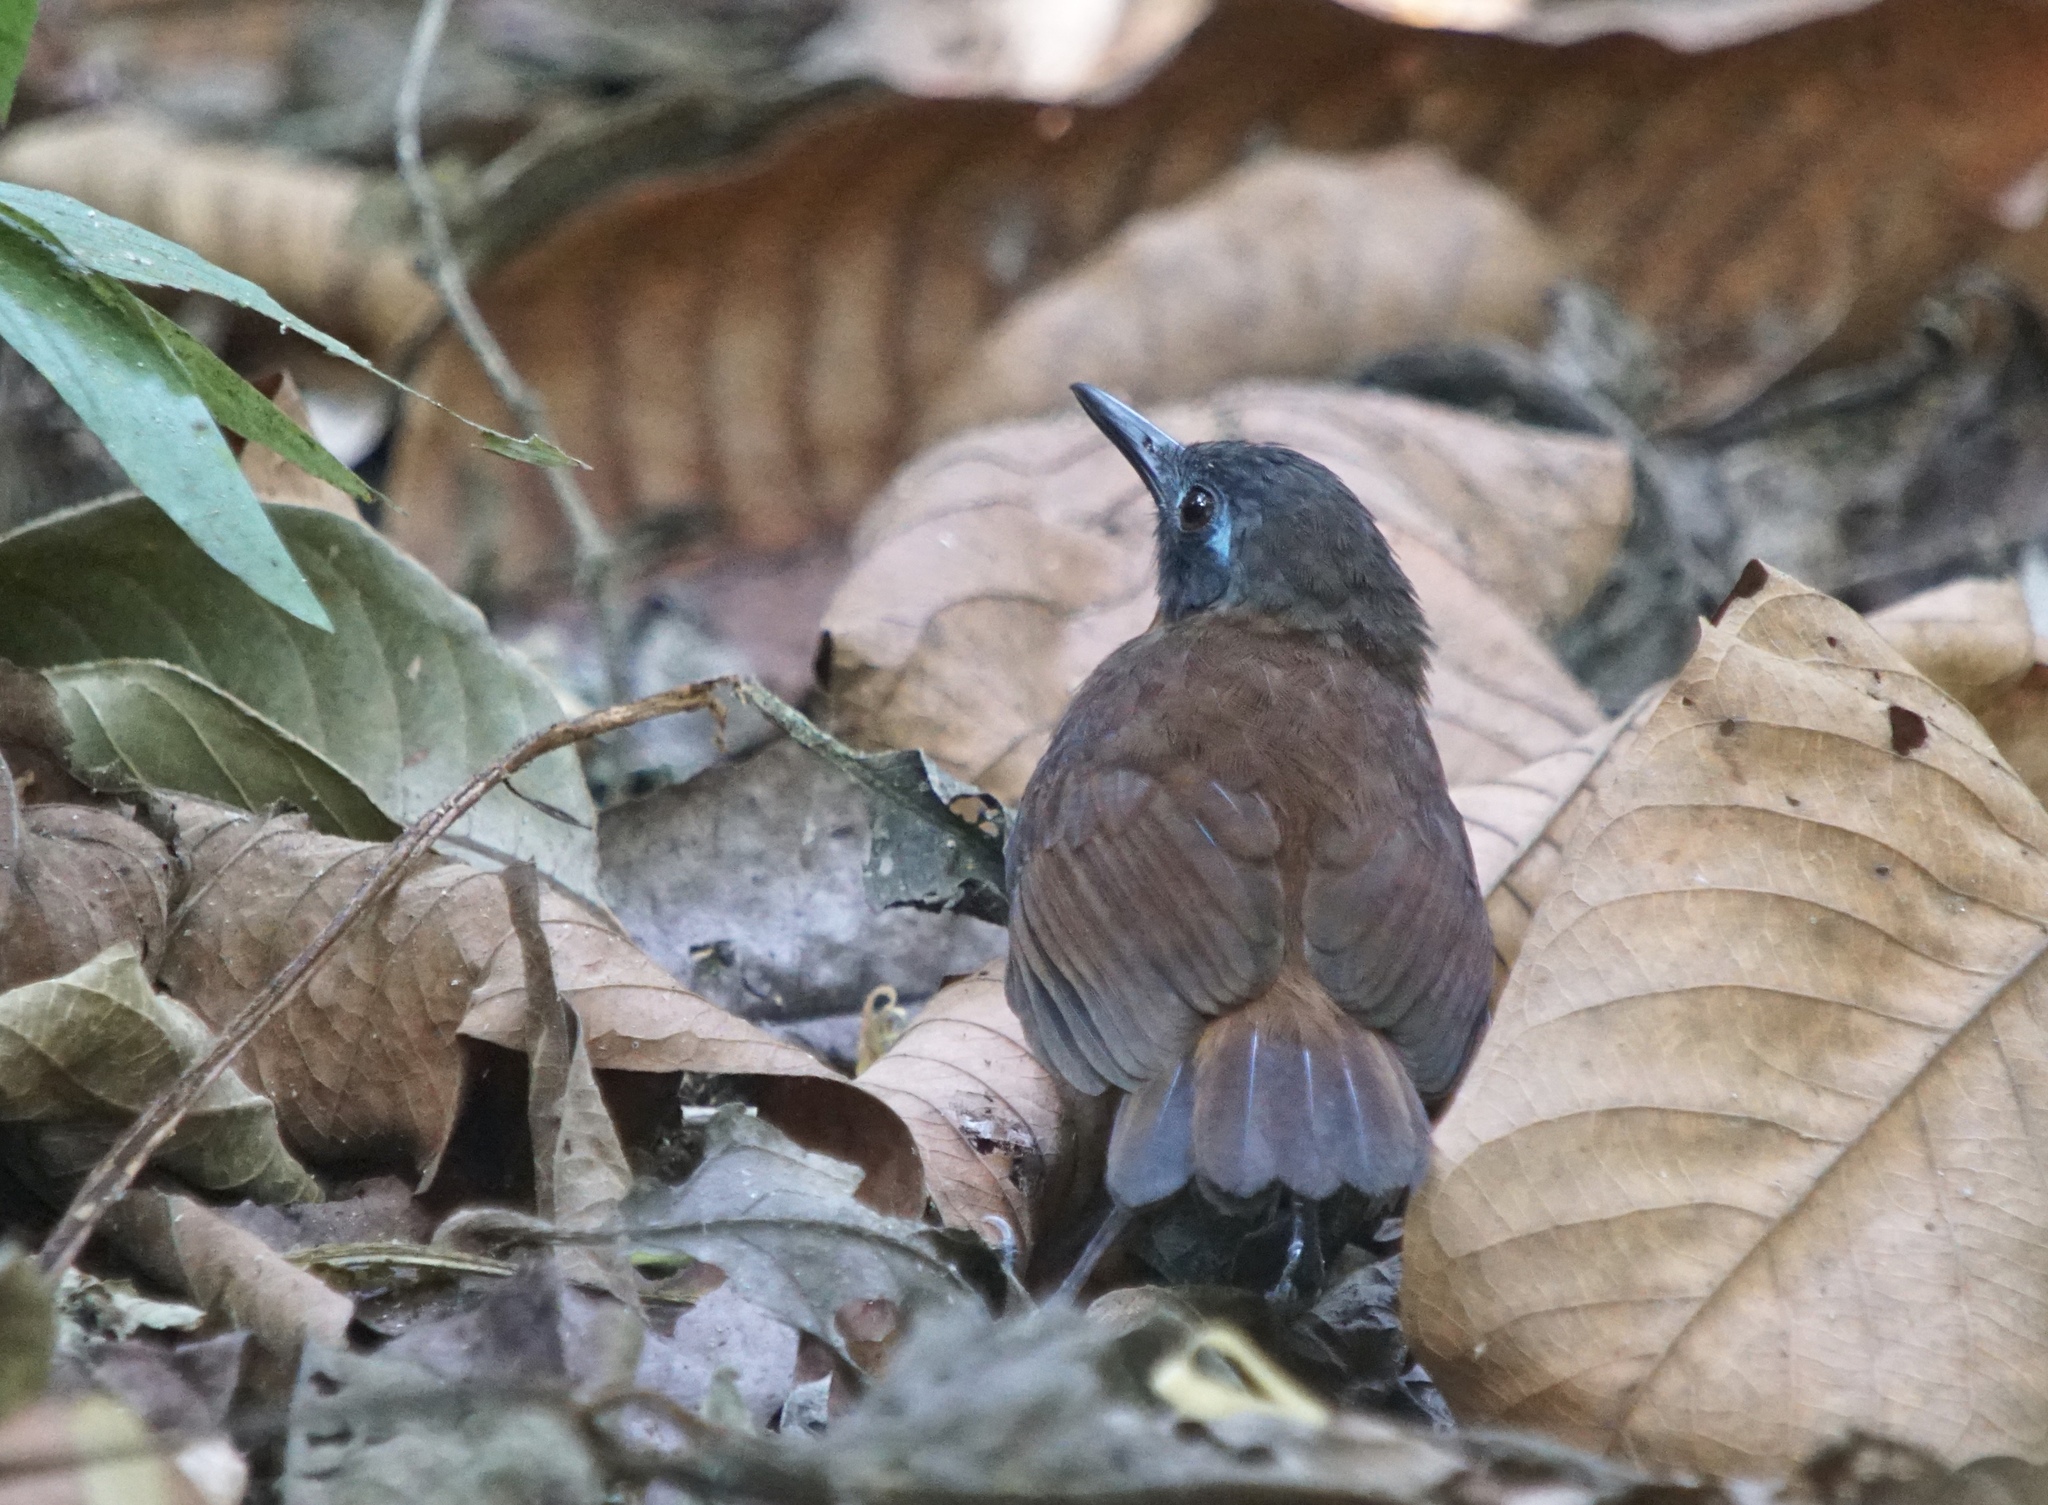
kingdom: Animalia
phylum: Chordata
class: Aves
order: Passeriformes
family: Thamnophilidae
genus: Myrmeciza
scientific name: Myrmeciza exsul
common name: Chestnut-backed antbird
